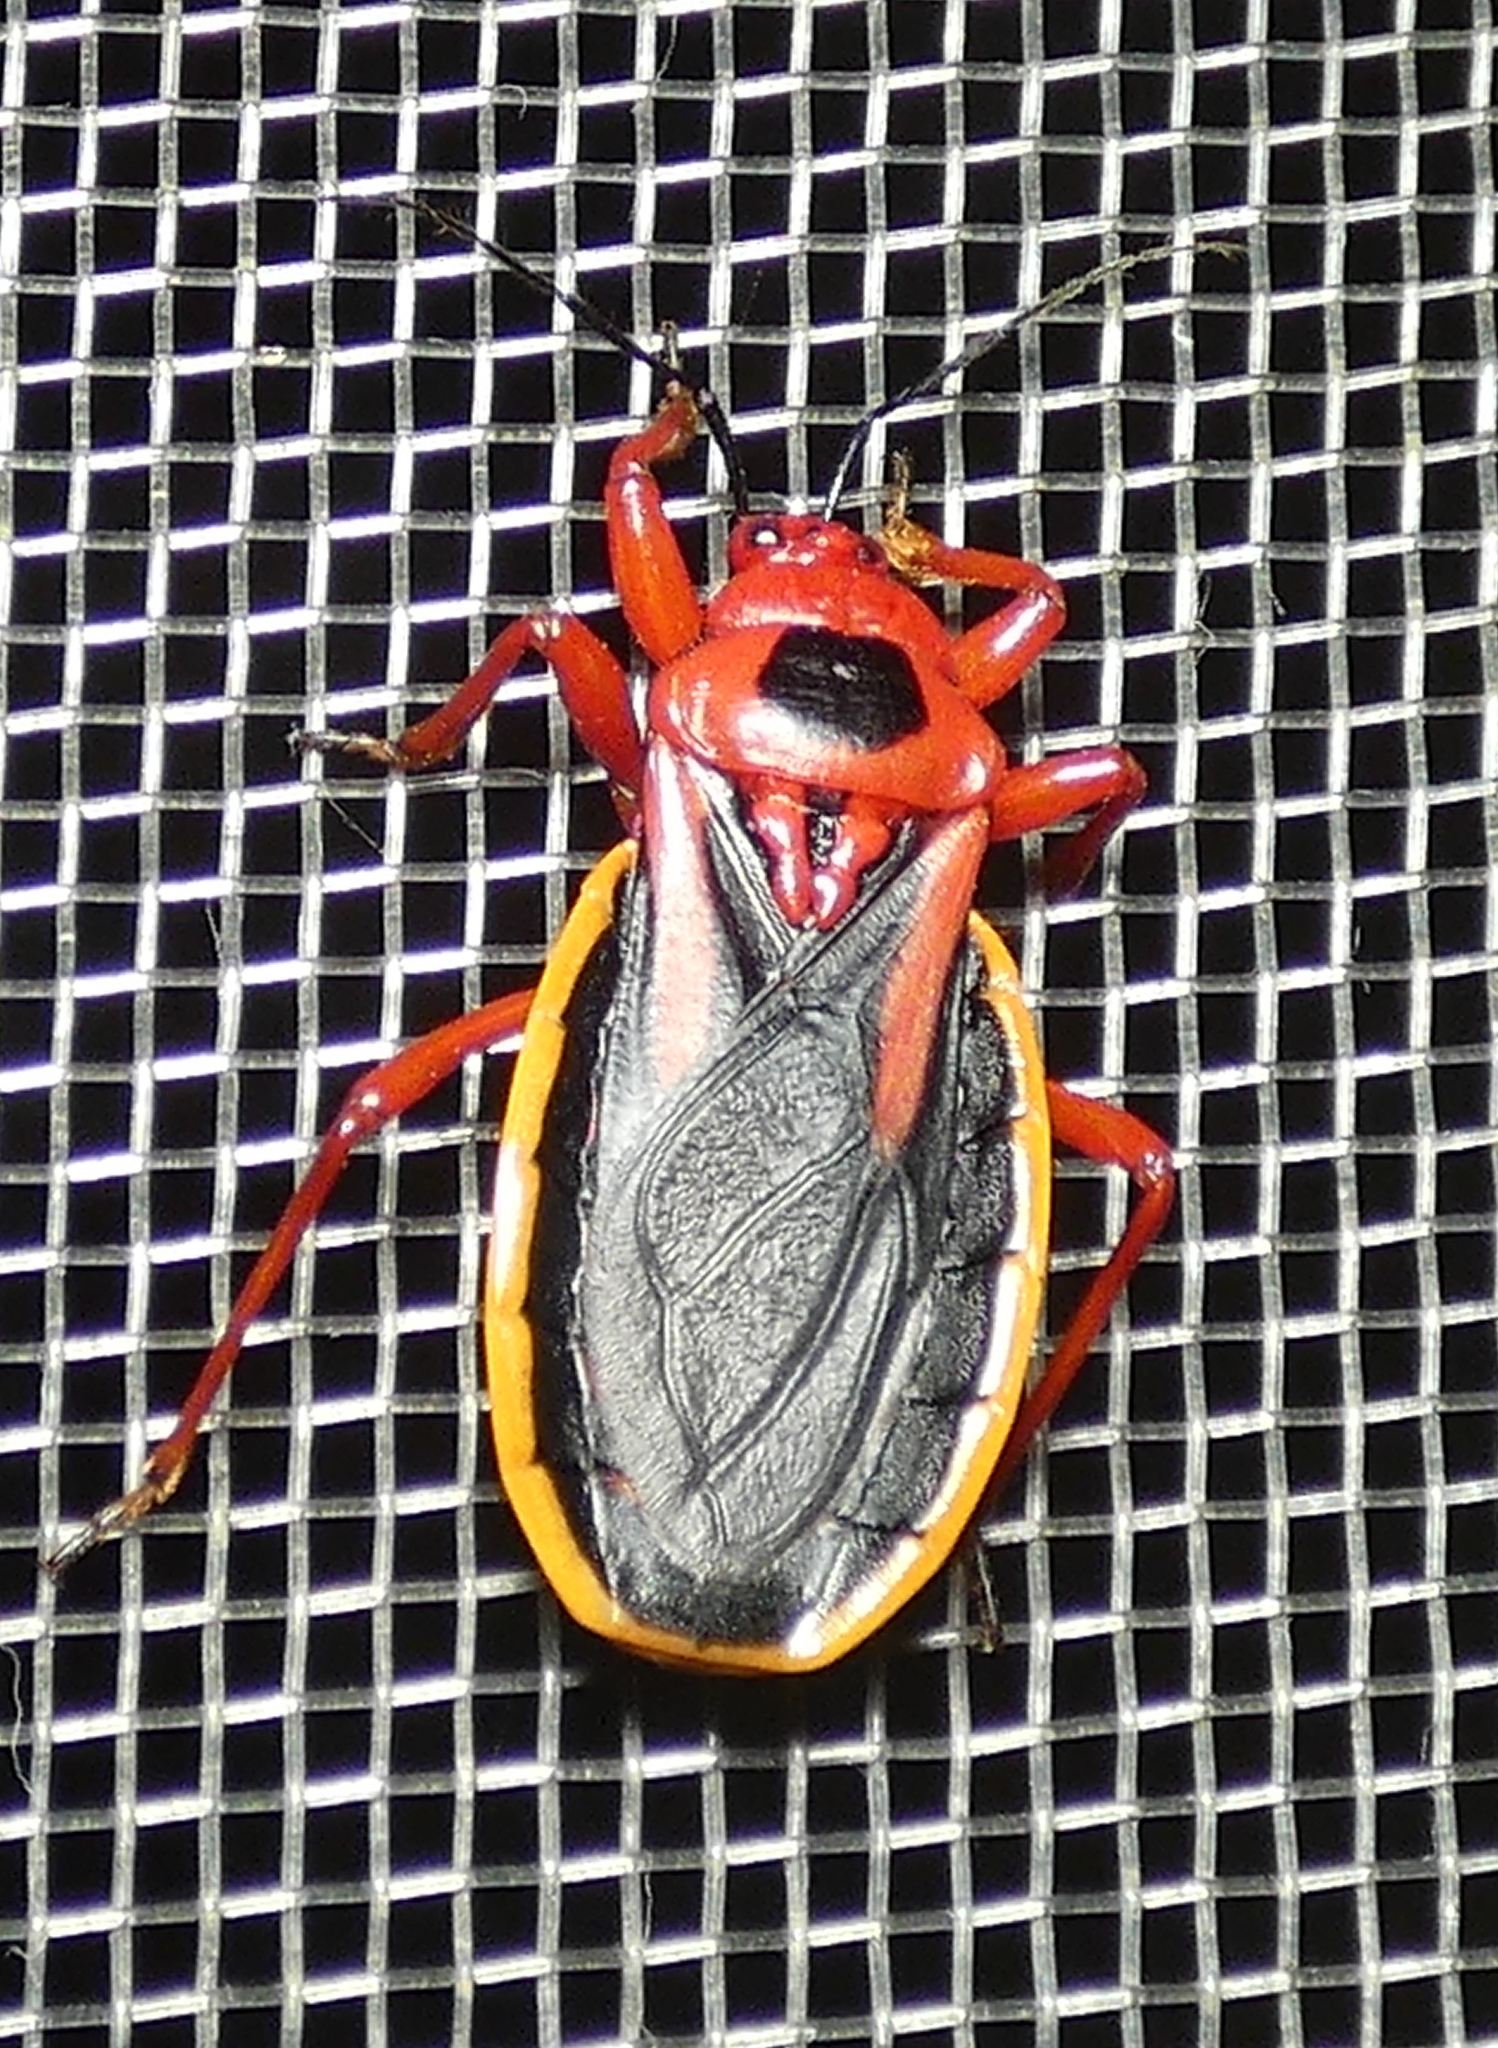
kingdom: Animalia
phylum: Arthropoda
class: Insecta
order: Hemiptera
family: Reduviidae
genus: Brontostoma
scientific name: Brontostoma discus
